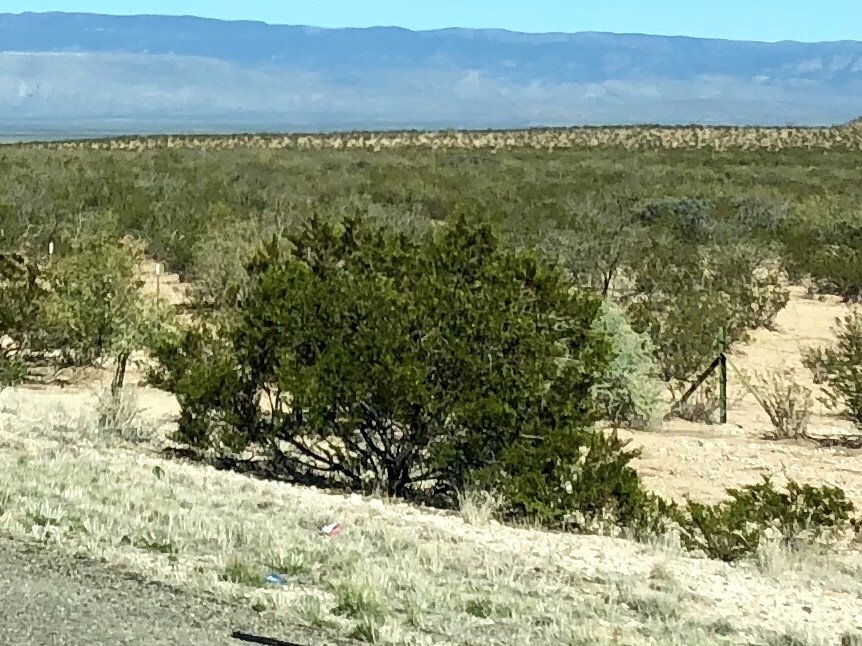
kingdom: Plantae
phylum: Tracheophyta
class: Magnoliopsida
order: Zygophyllales
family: Zygophyllaceae
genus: Larrea
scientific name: Larrea tridentata
